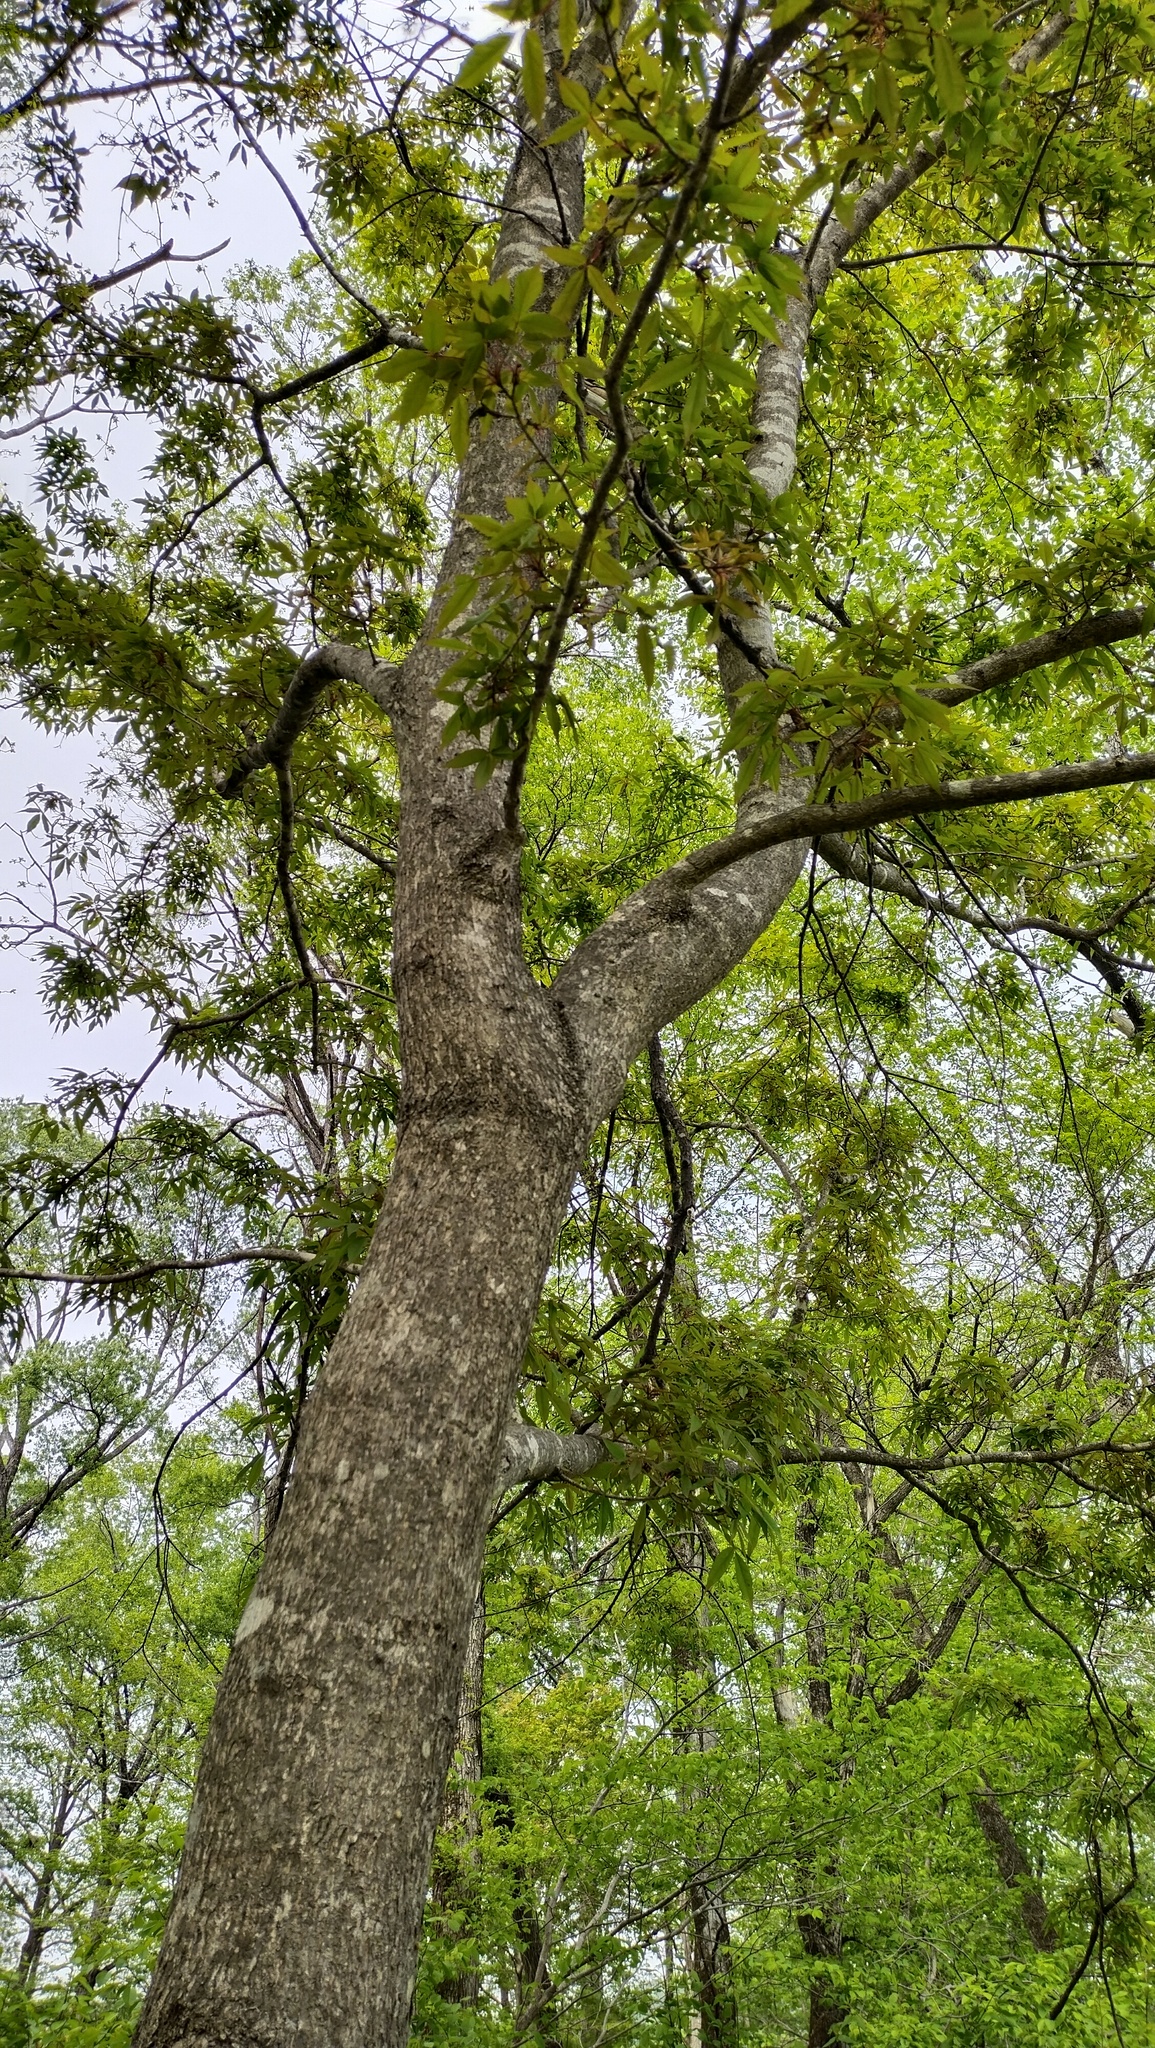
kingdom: Plantae
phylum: Tracheophyta
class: Magnoliopsida
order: Sapindales
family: Sapindaceae
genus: Acer
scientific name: Acer mandshuricum
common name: Manchurian maple
